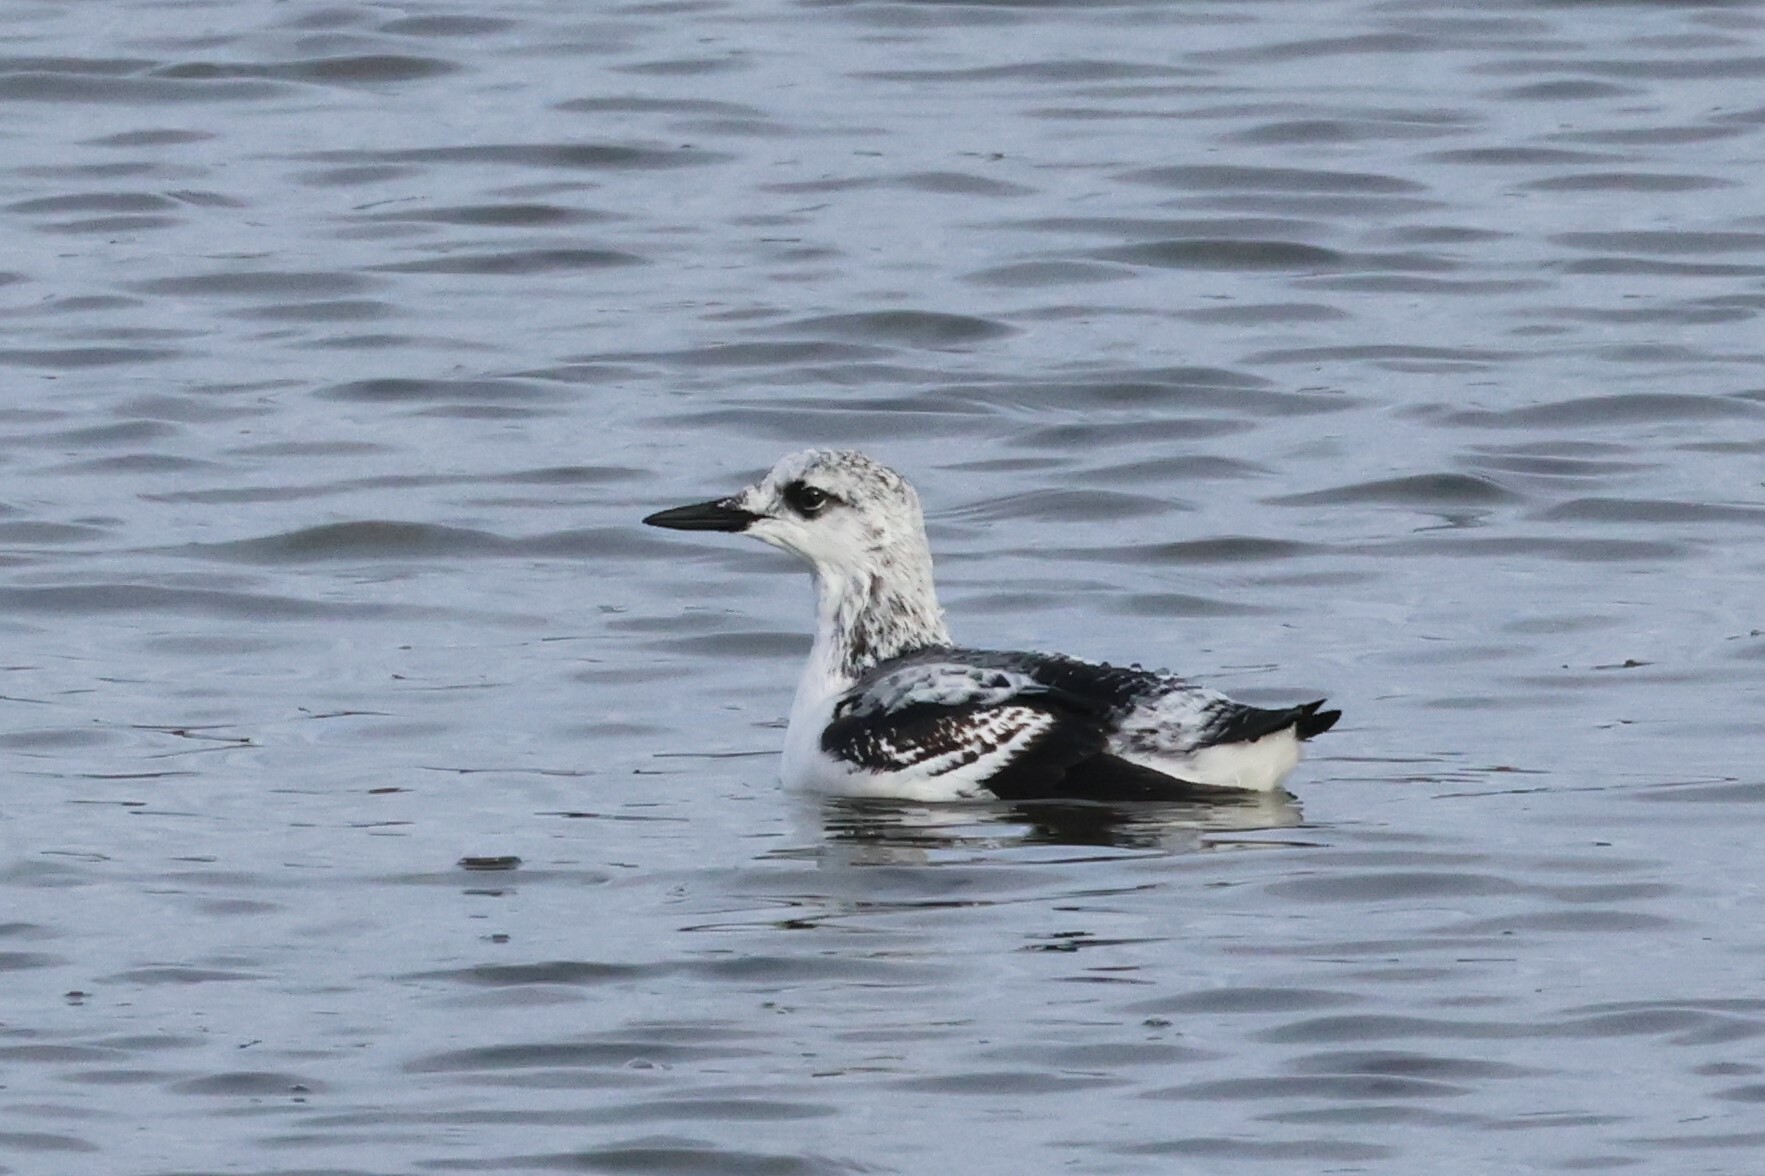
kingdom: Animalia
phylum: Chordata
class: Aves
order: Charadriiformes
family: Alcidae
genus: Cepphus
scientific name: Cepphus grylle
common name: Black guillemot
